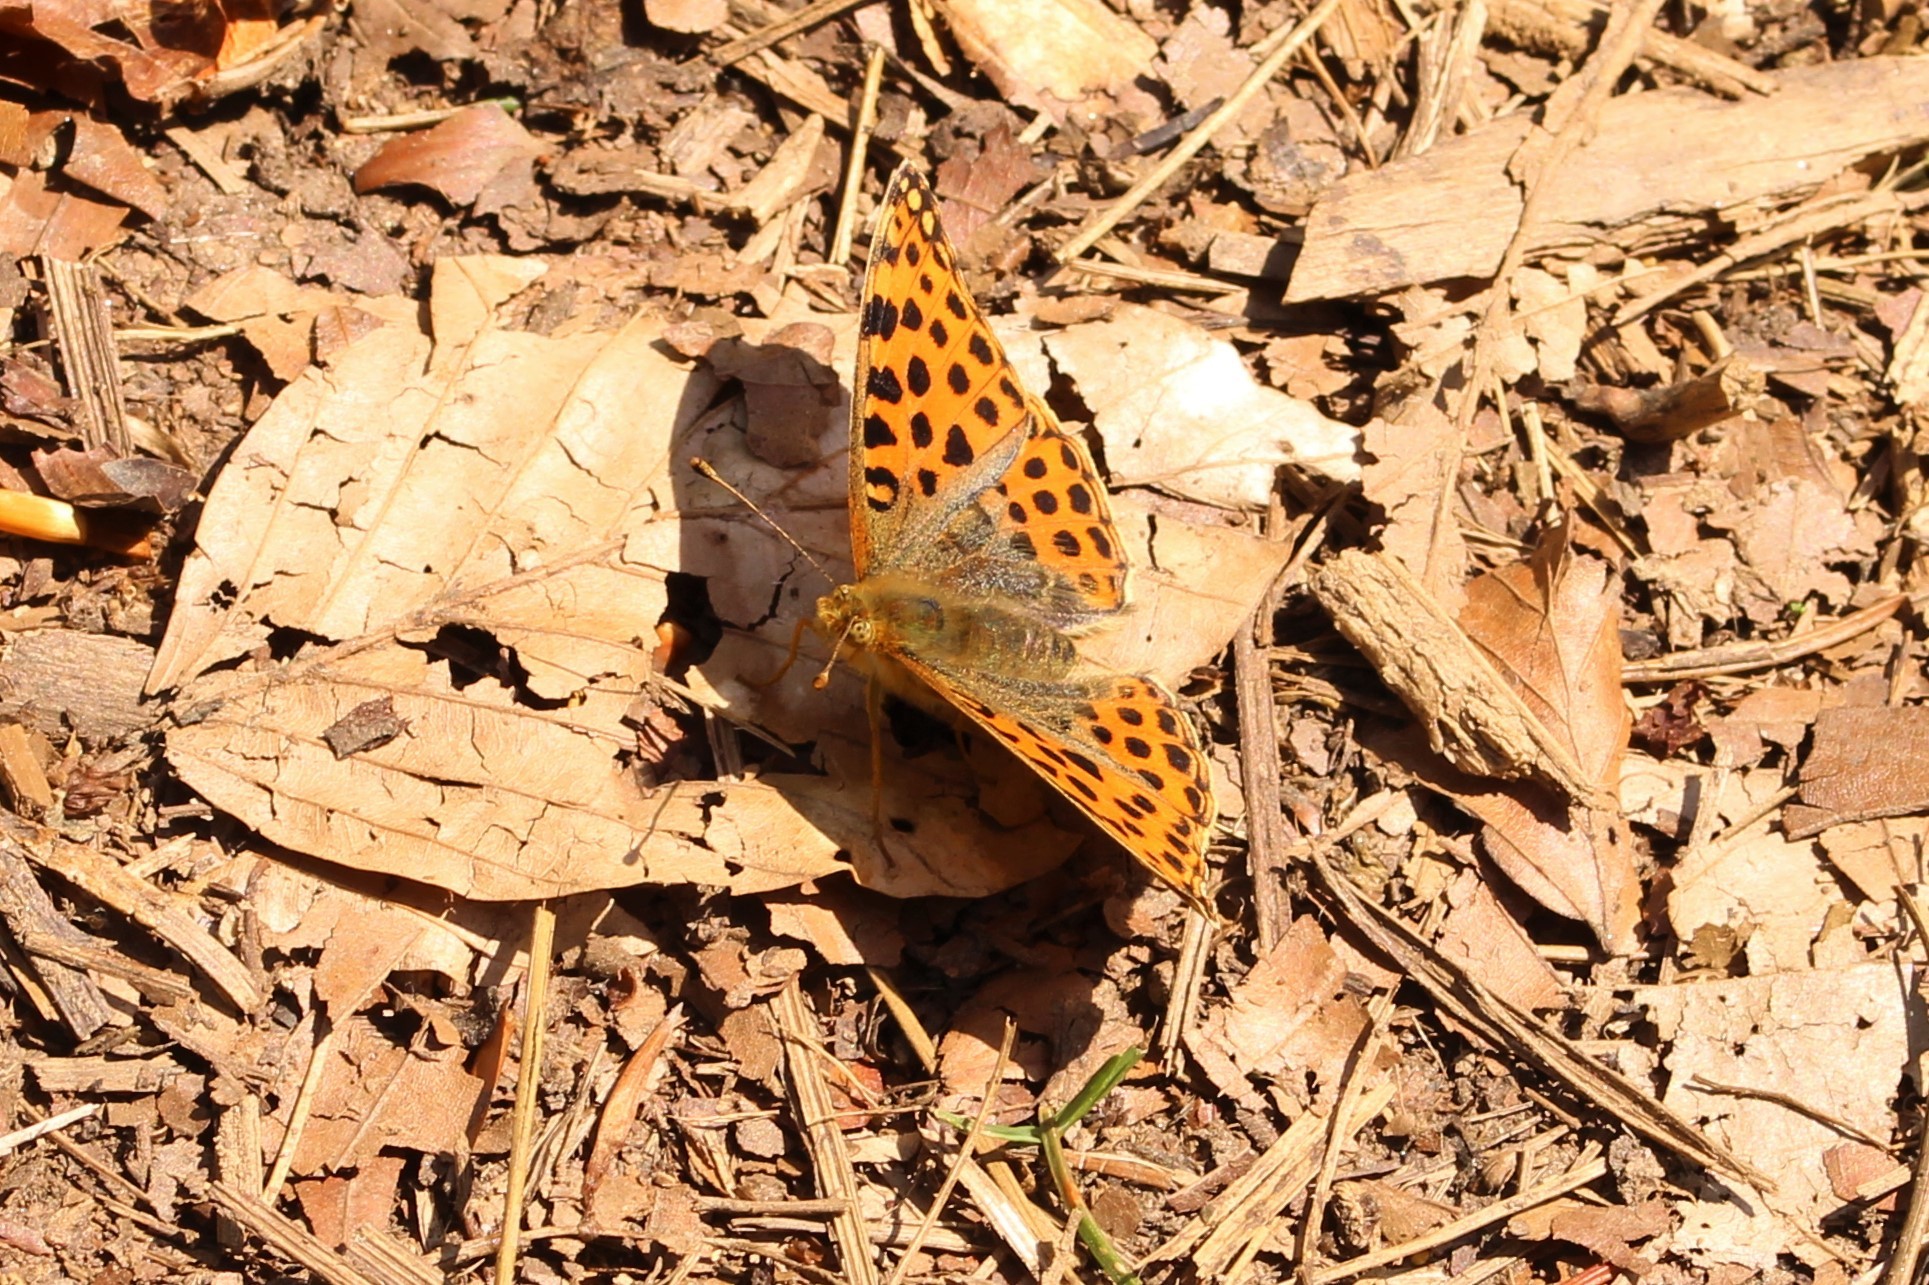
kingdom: Animalia
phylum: Arthropoda
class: Insecta
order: Lepidoptera
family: Nymphalidae
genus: Issoria
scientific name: Issoria lathonia
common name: Queen of spain fritillary
